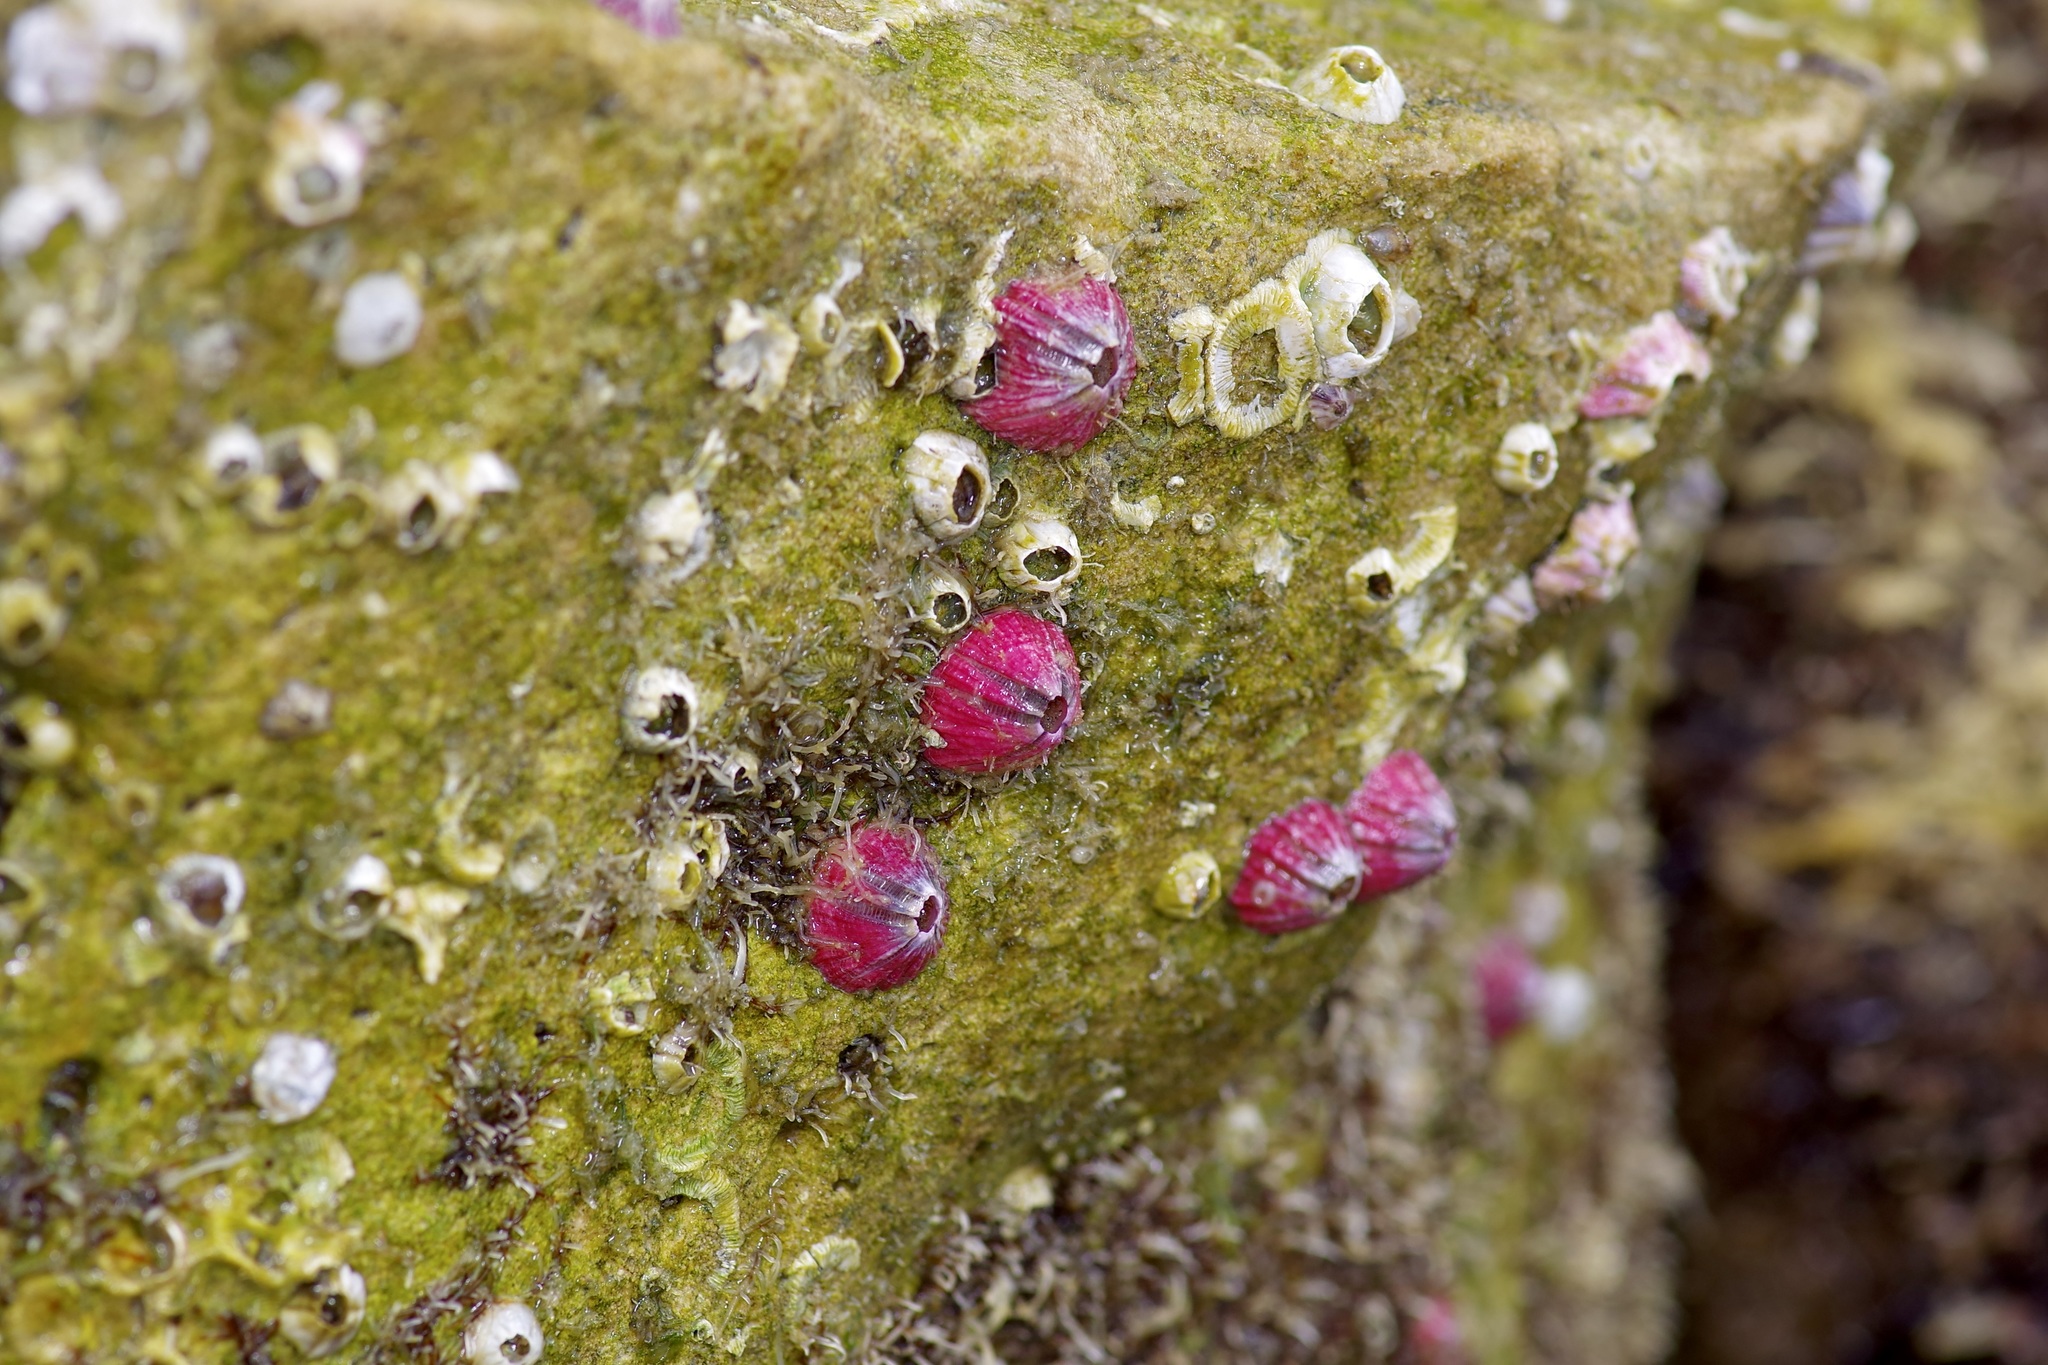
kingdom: Animalia
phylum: Arthropoda
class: Maxillopoda
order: Sessilia
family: Balanidae
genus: Megabalanus
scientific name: Megabalanus tintinnabulum
